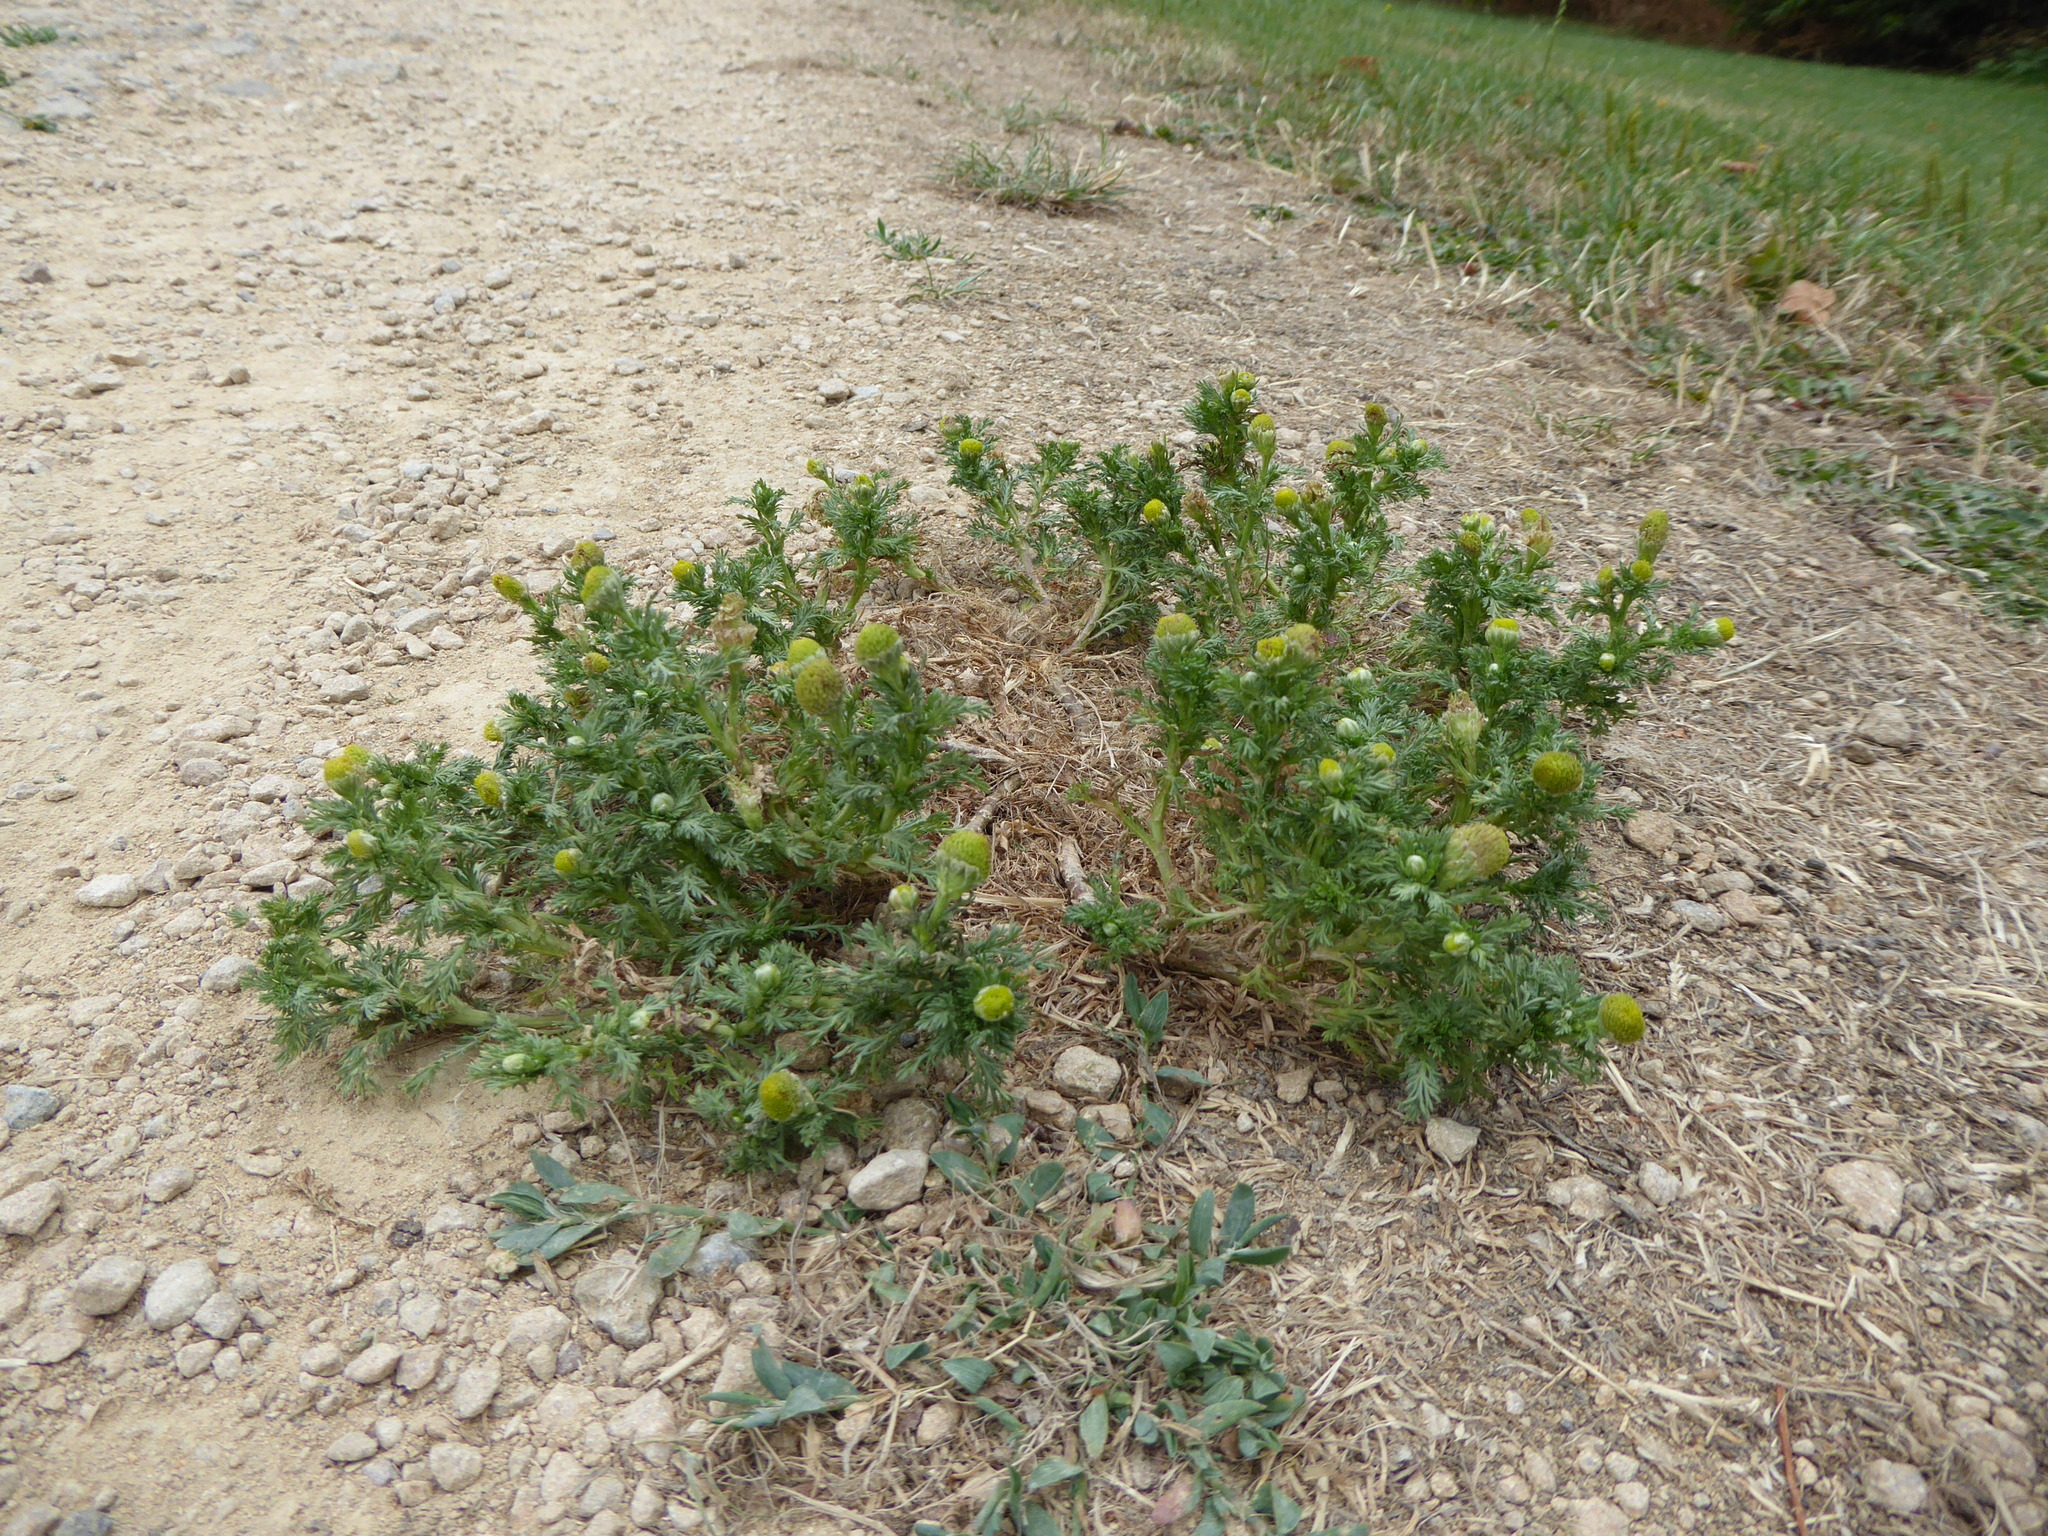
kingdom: Plantae
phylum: Tracheophyta
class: Magnoliopsida
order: Asterales
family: Asteraceae
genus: Matricaria
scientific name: Matricaria discoidea
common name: Disc mayweed
